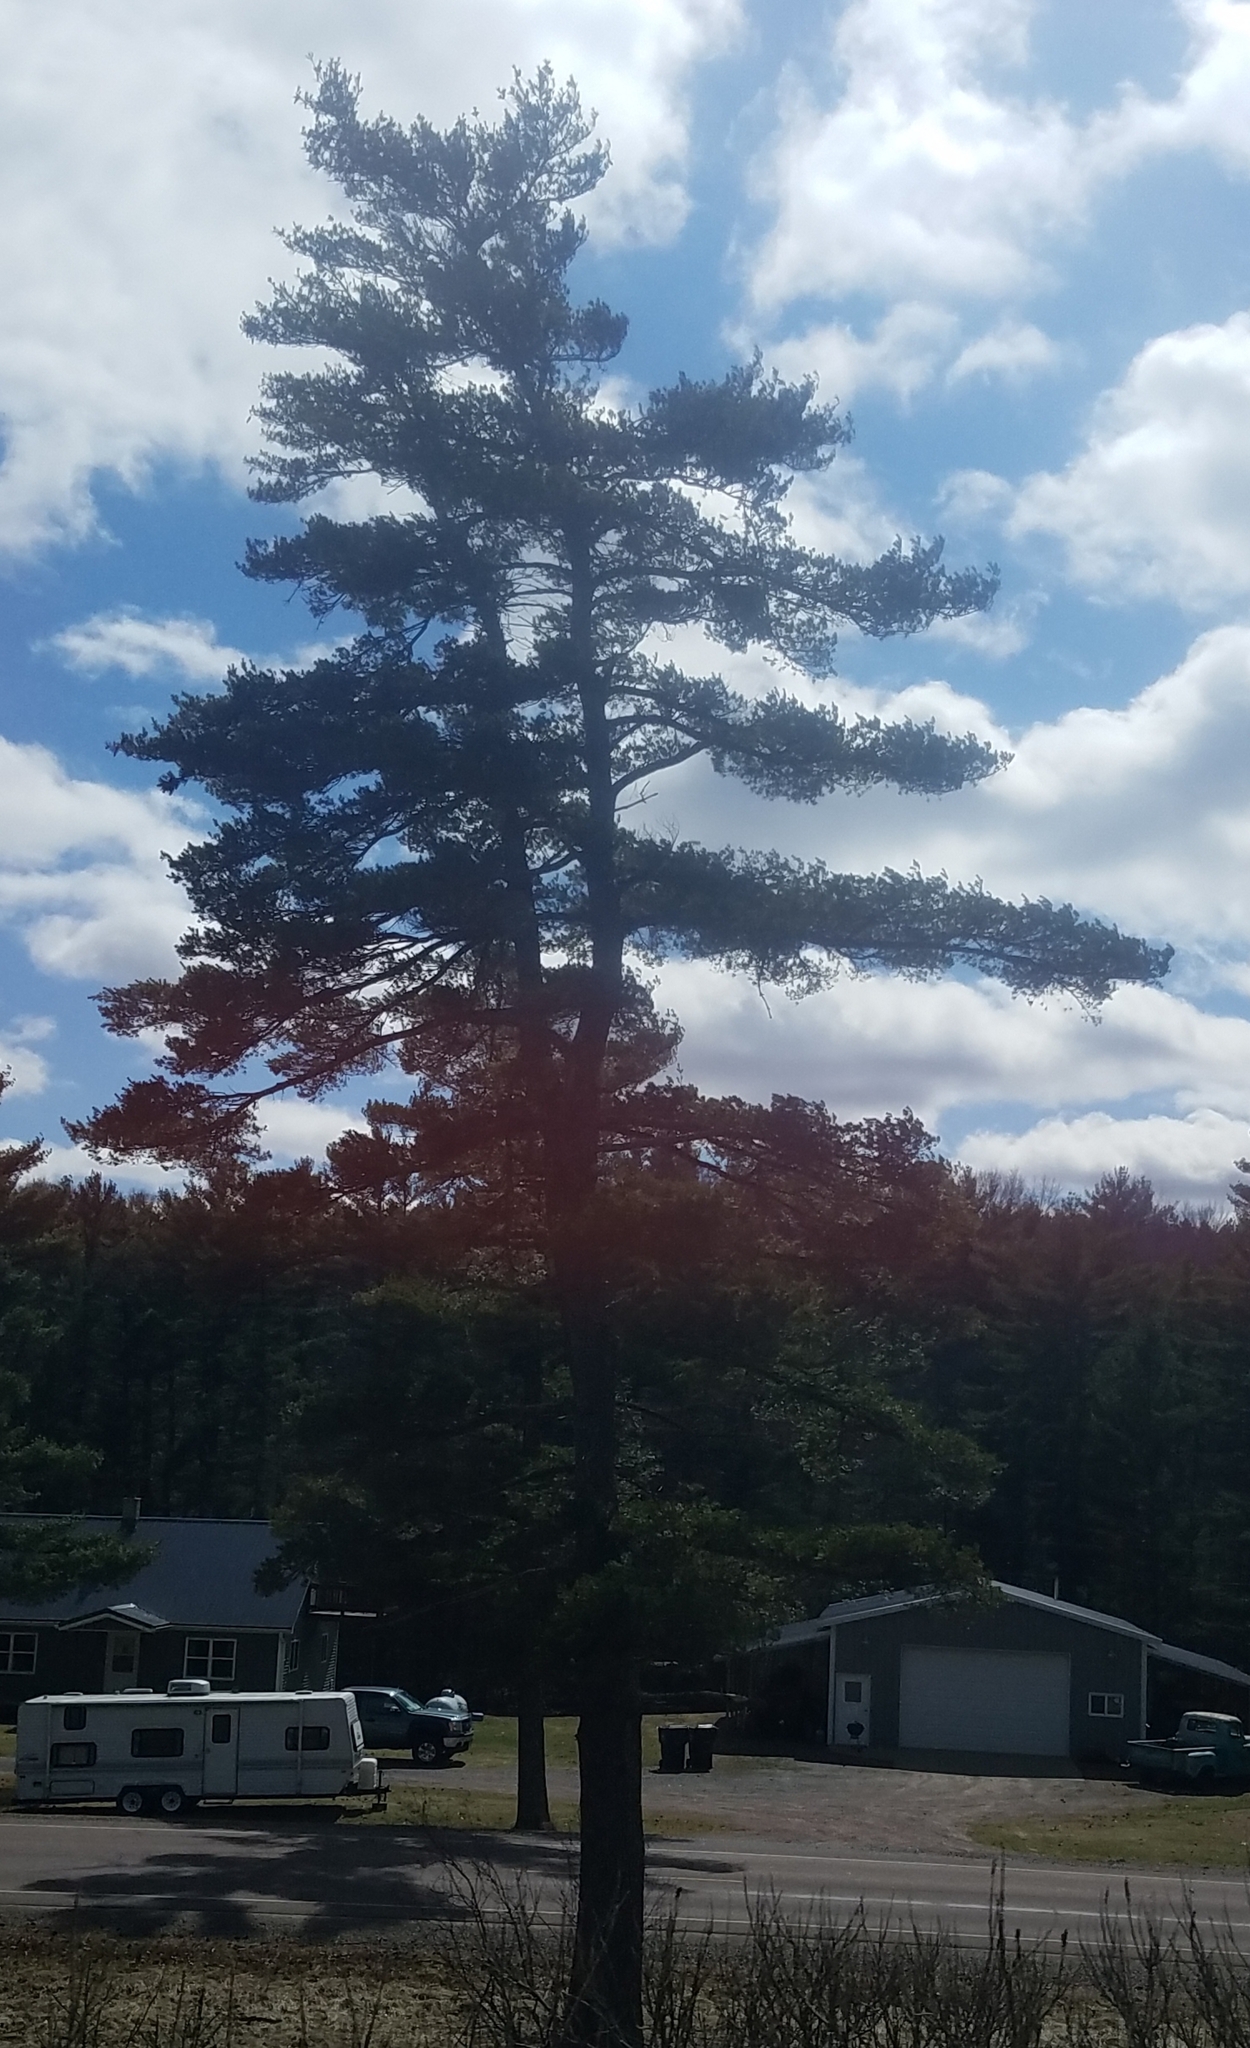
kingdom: Plantae
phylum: Tracheophyta
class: Pinopsida
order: Pinales
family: Pinaceae
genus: Pinus
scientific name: Pinus strobus
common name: Weymouth pine
